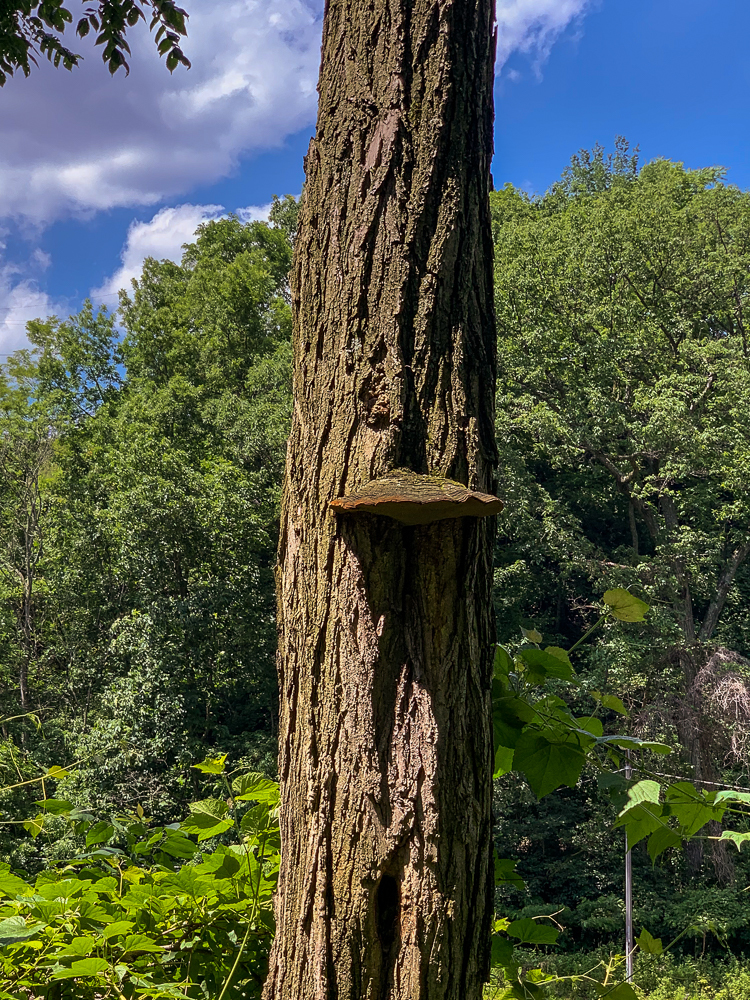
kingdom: Fungi
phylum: Basidiomycota
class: Agaricomycetes
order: Hymenochaetales
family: Hymenochaetaceae
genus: Phellinus
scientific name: Phellinus robiniae
